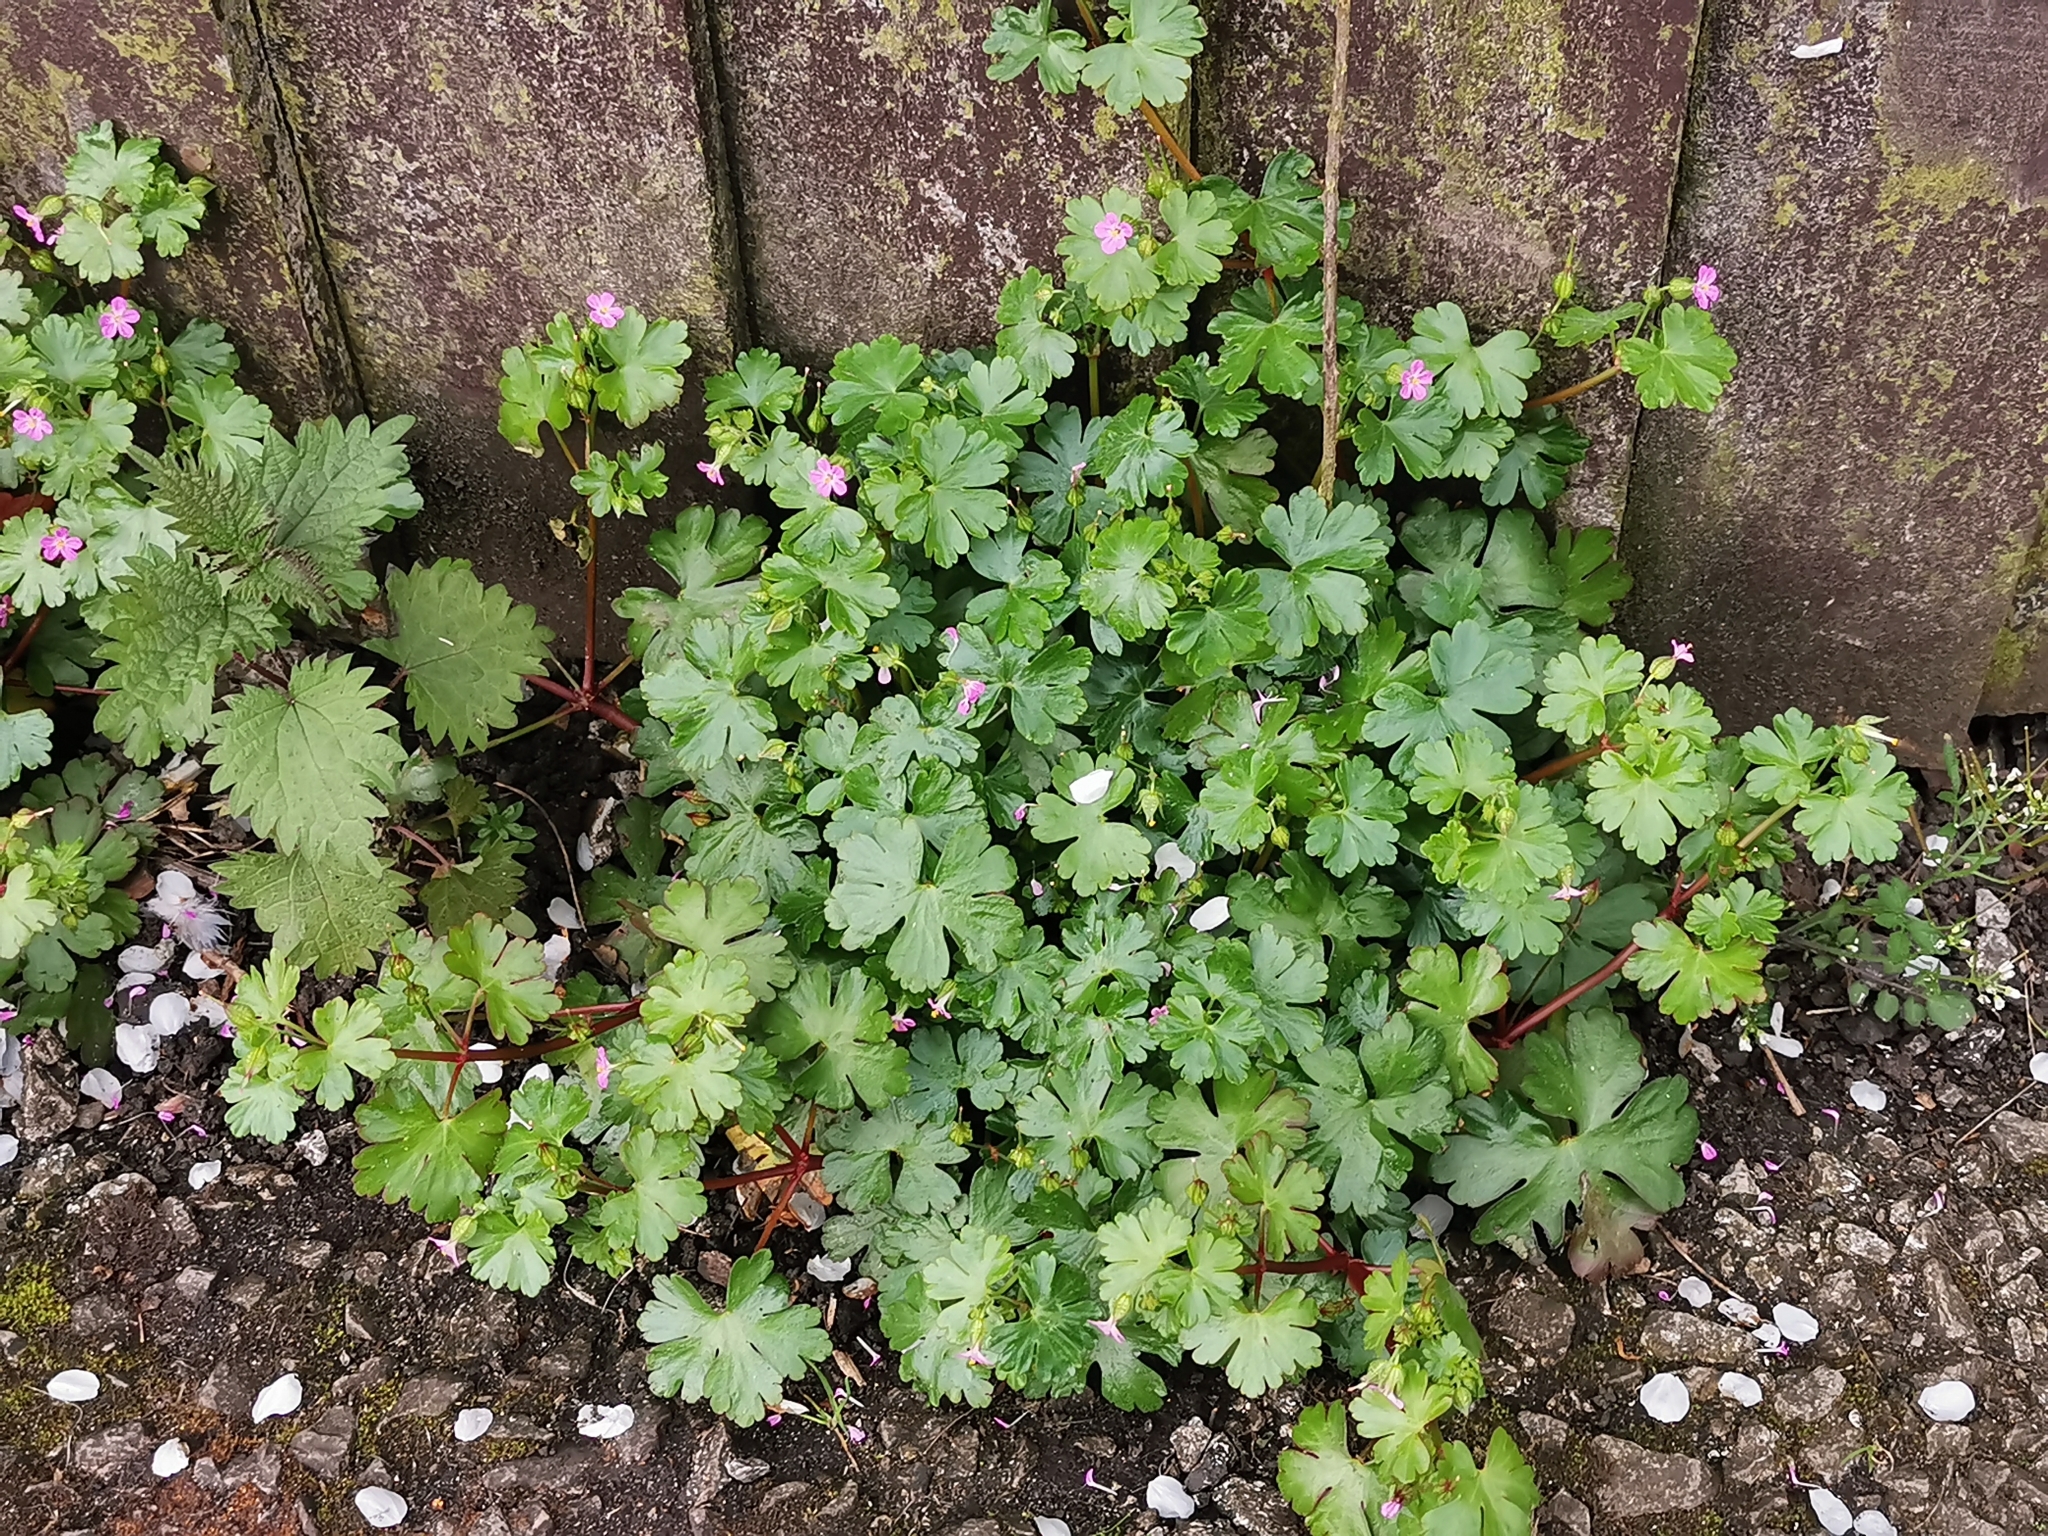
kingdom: Plantae
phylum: Tracheophyta
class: Magnoliopsida
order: Geraniales
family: Geraniaceae
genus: Geranium
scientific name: Geranium lucidum
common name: Shining crane's-bill
